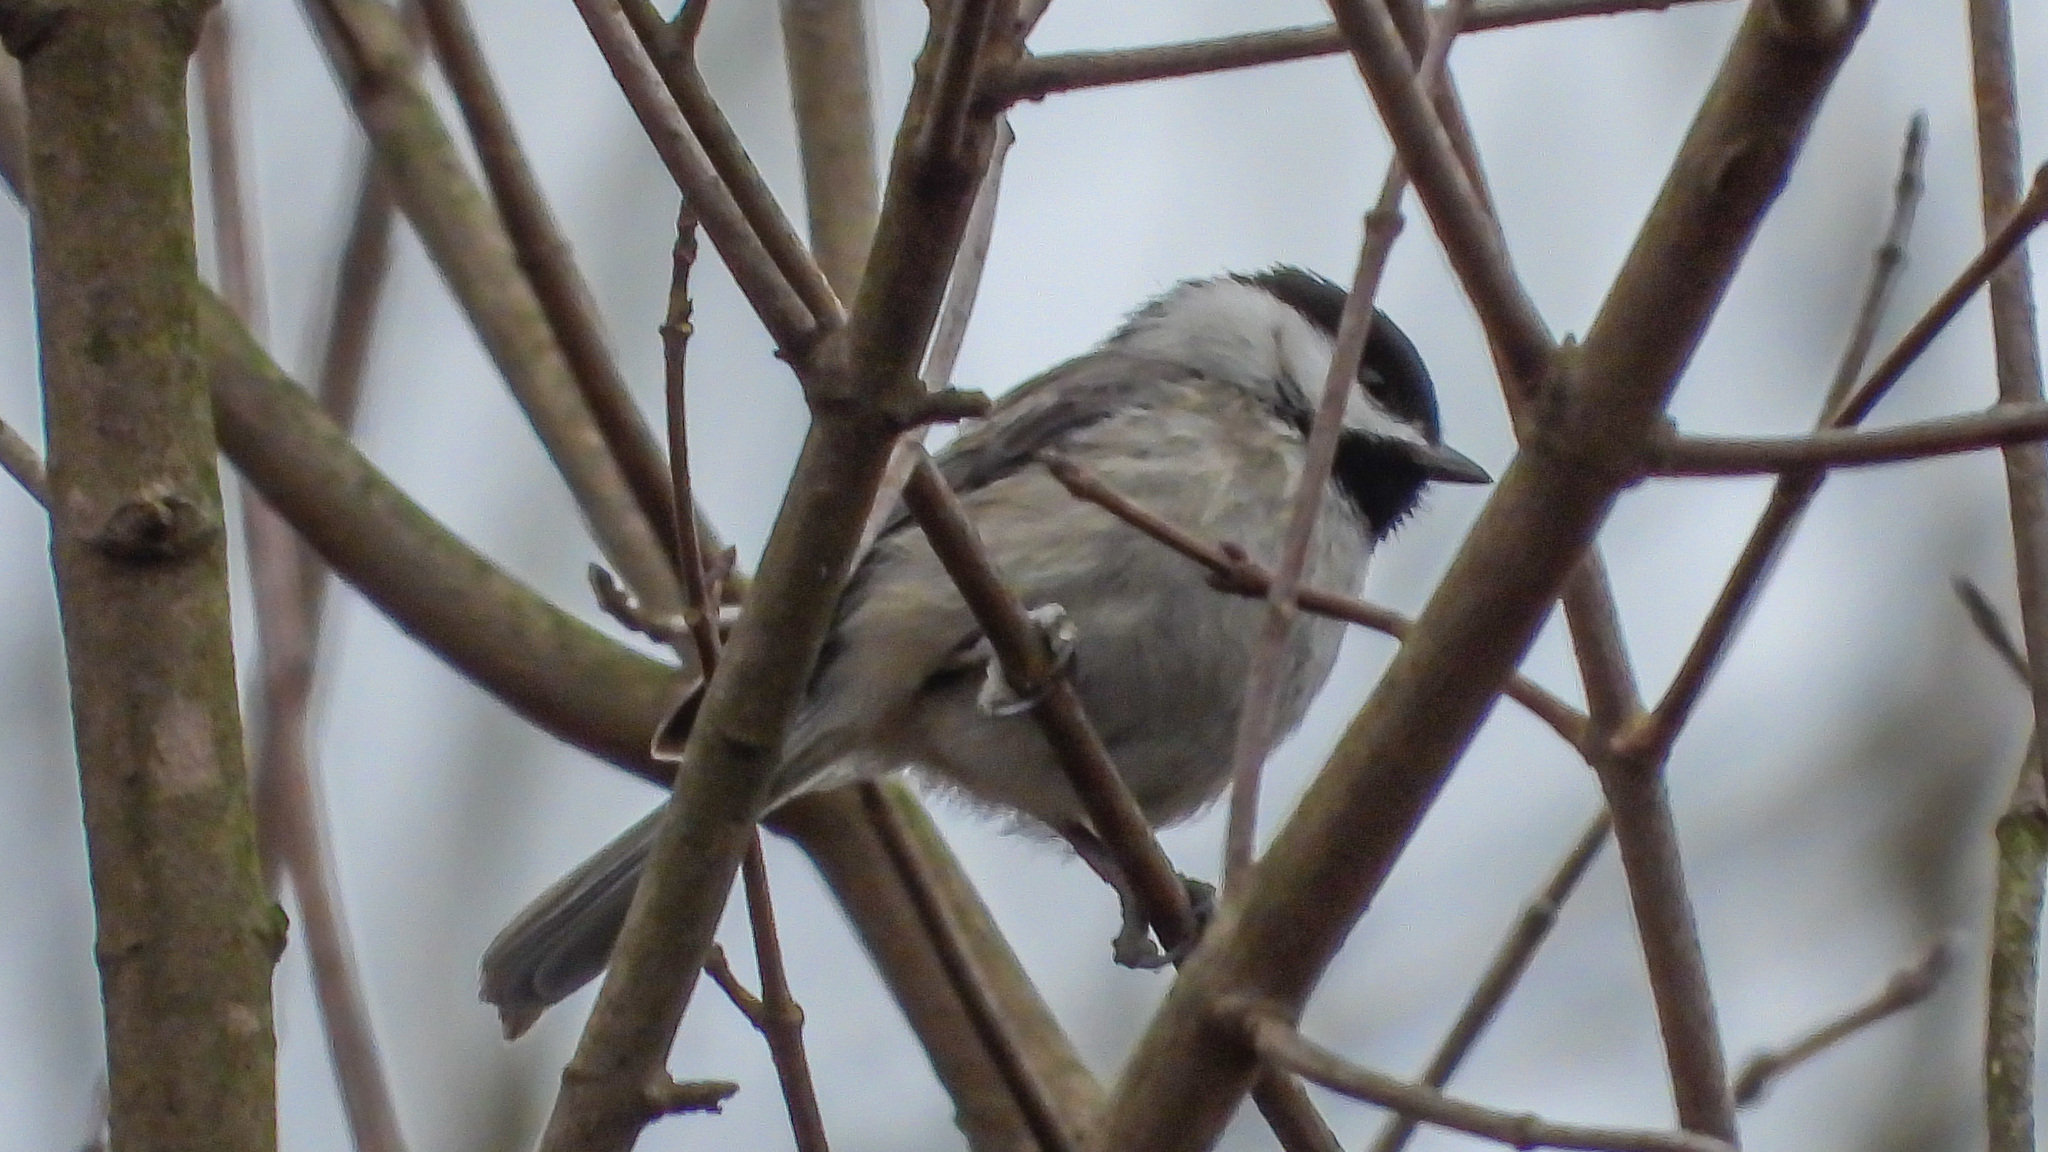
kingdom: Animalia
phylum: Chordata
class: Aves
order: Passeriformes
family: Paridae
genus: Poecile
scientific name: Poecile carolinensis
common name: Carolina chickadee
